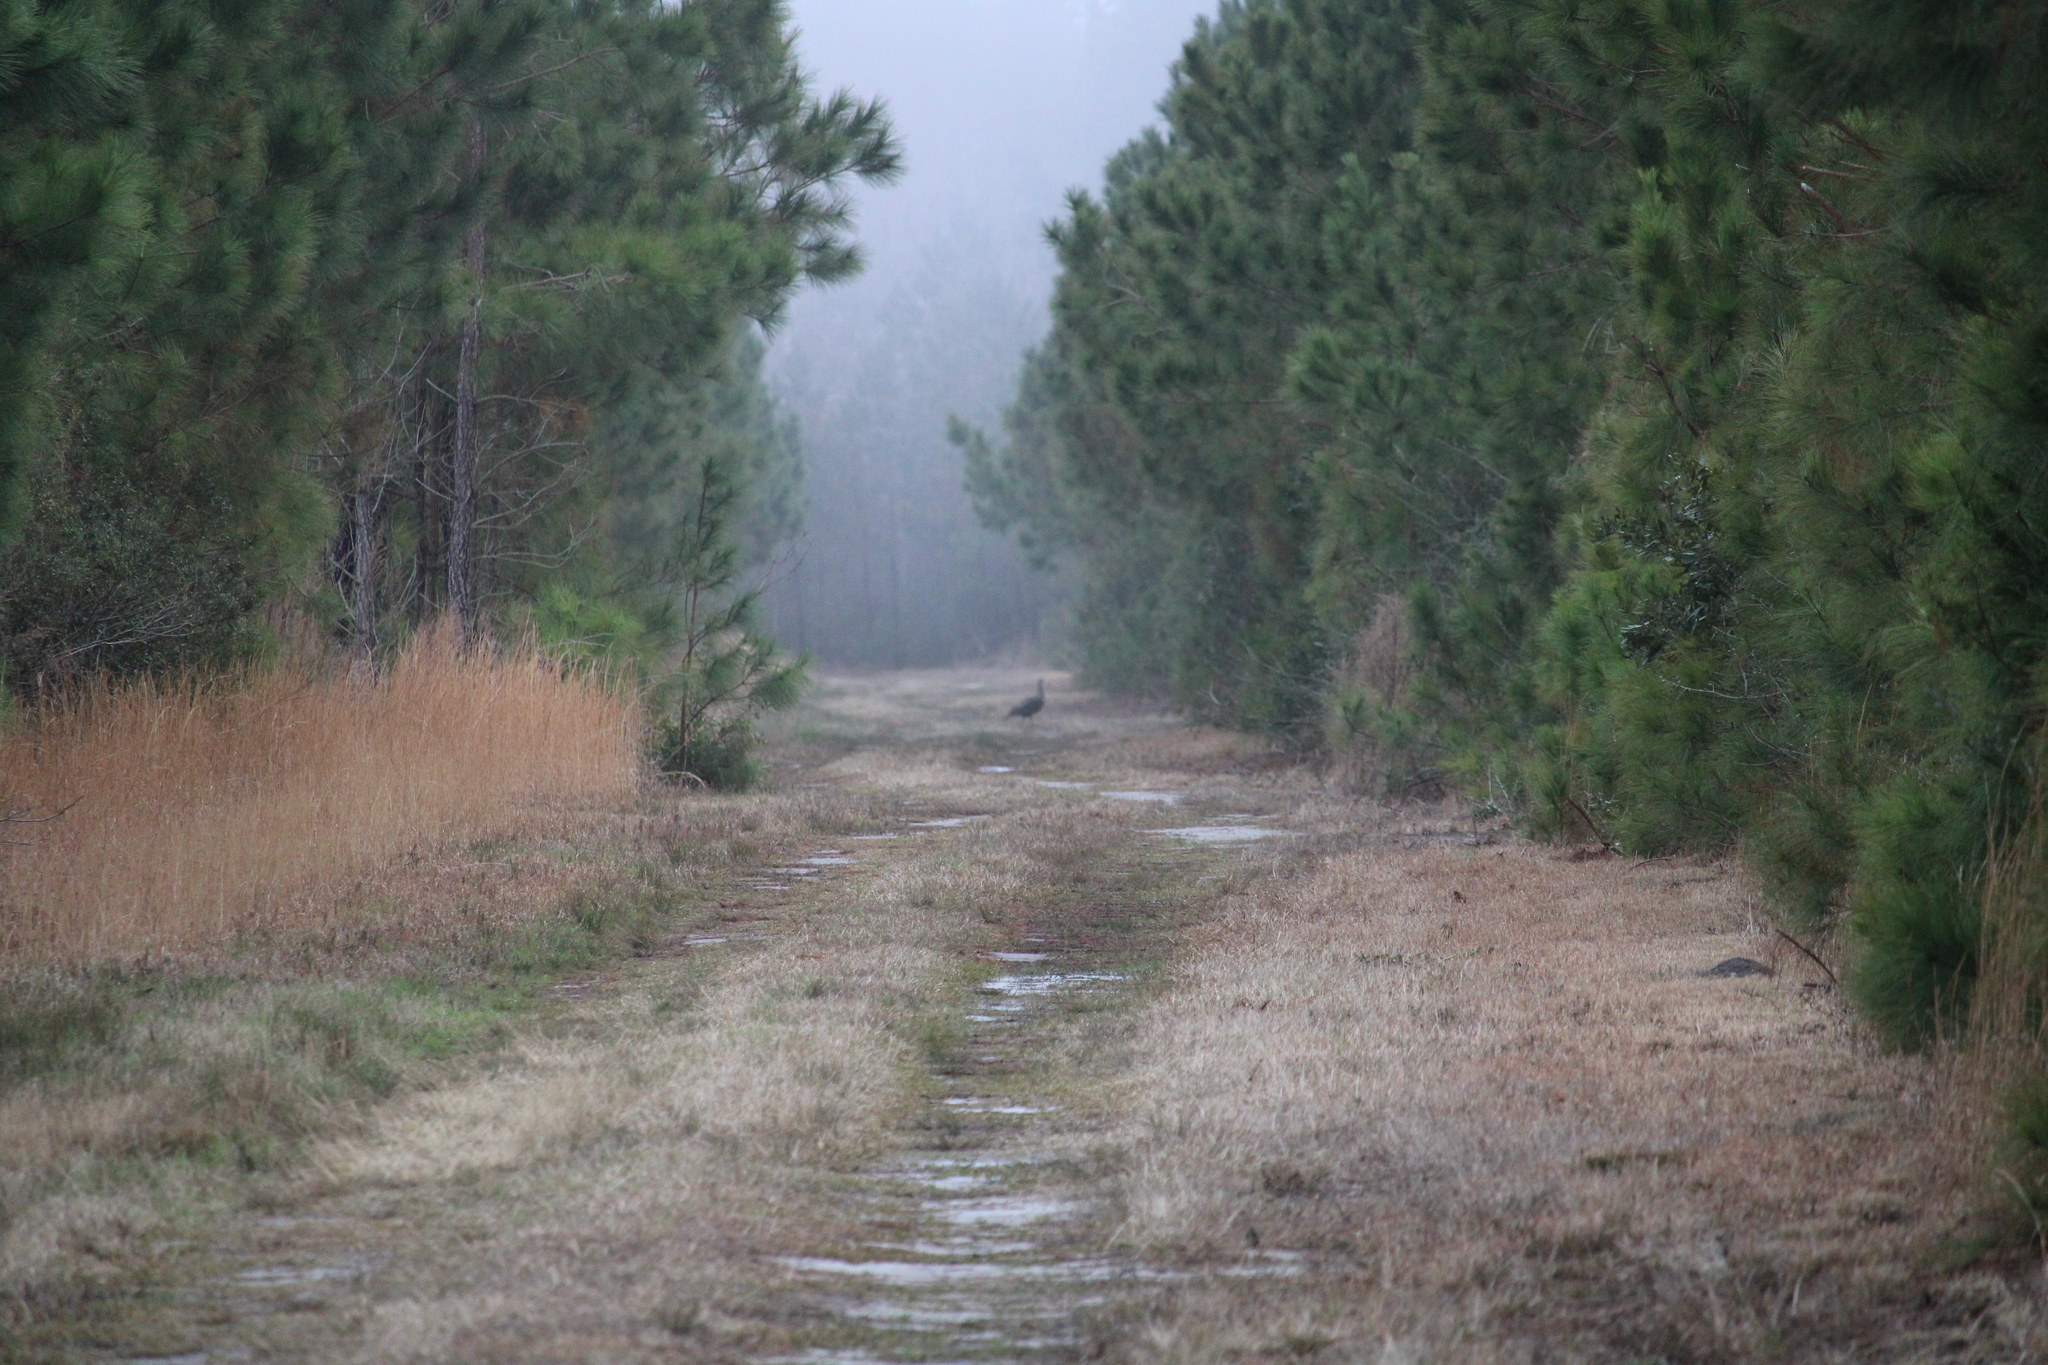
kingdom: Animalia
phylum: Chordata
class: Aves
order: Galliformes
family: Phasianidae
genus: Meleagris
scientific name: Meleagris gallopavo
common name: Wild turkey
